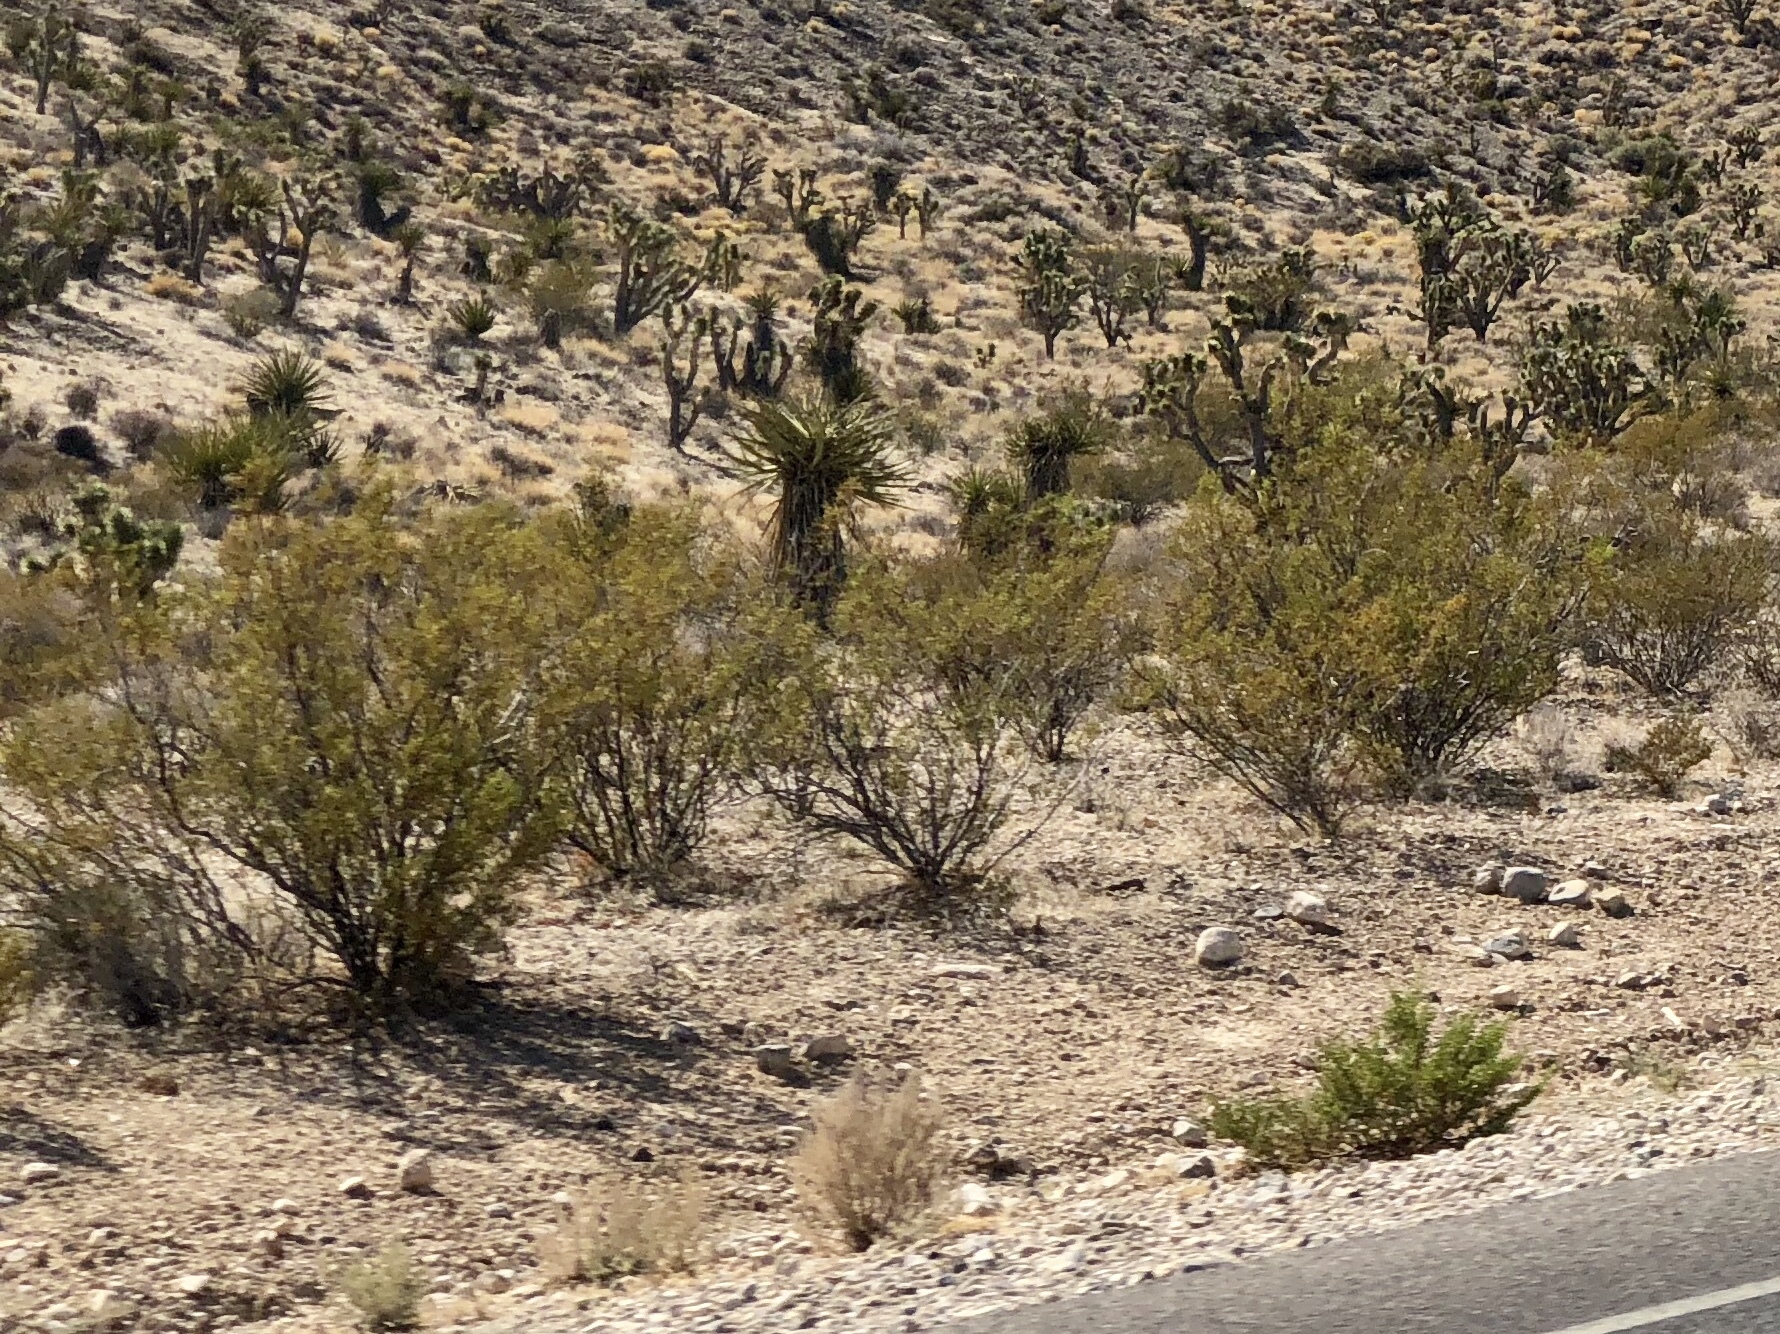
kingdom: Plantae
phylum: Tracheophyta
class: Magnoliopsida
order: Zygophyllales
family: Zygophyllaceae
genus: Larrea
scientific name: Larrea tridentata
